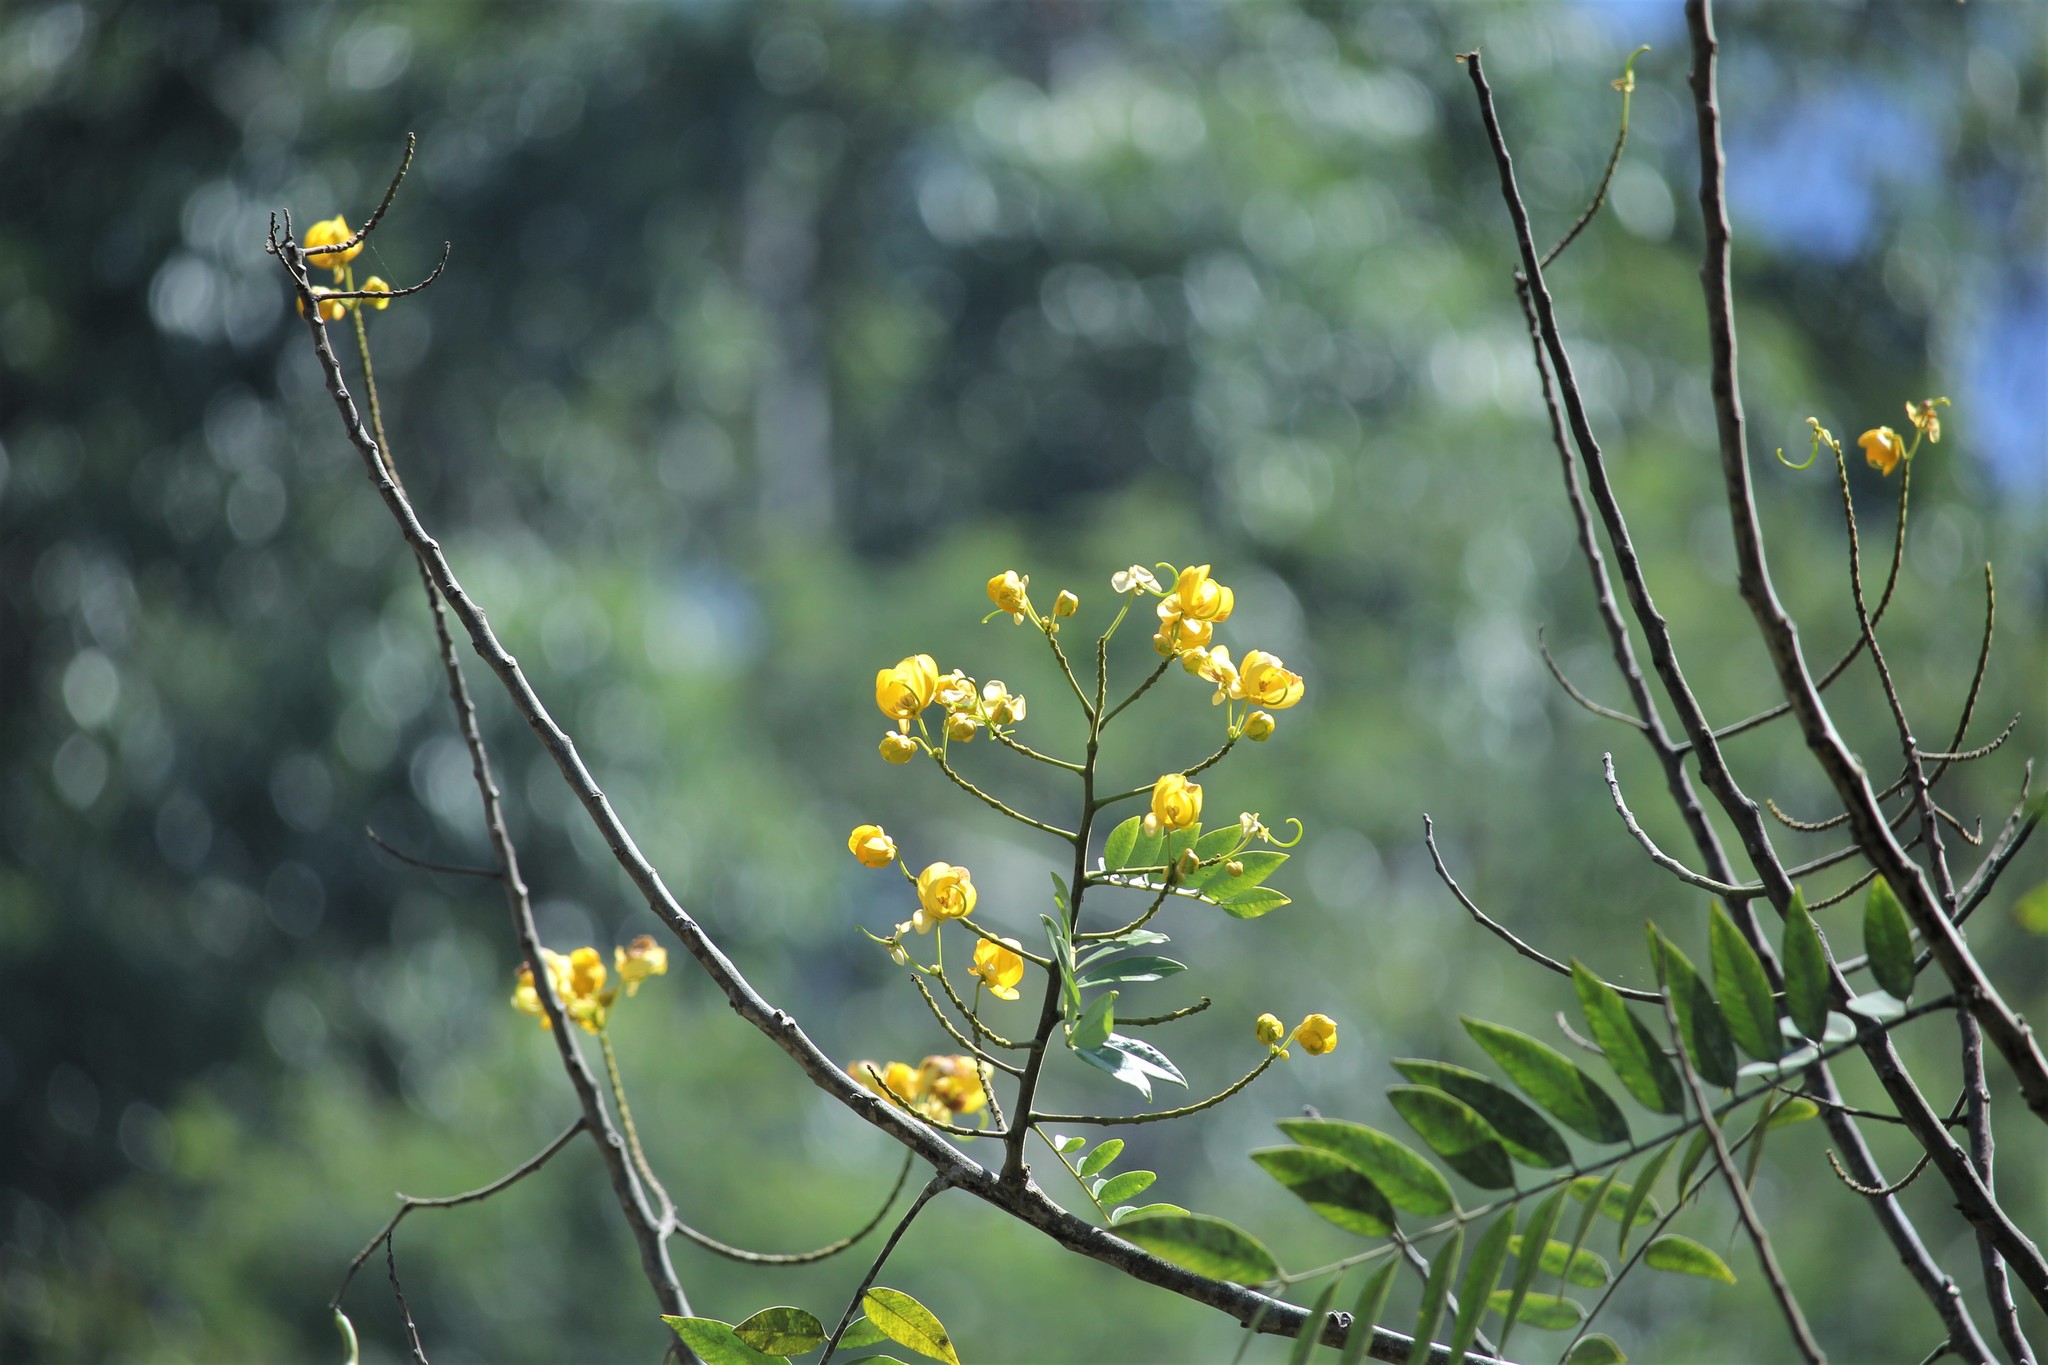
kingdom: Plantae
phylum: Tracheophyta
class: Magnoliopsida
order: Fabales
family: Fabaceae
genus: Senna
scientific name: Senna spectabilis
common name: Casia amarilla
